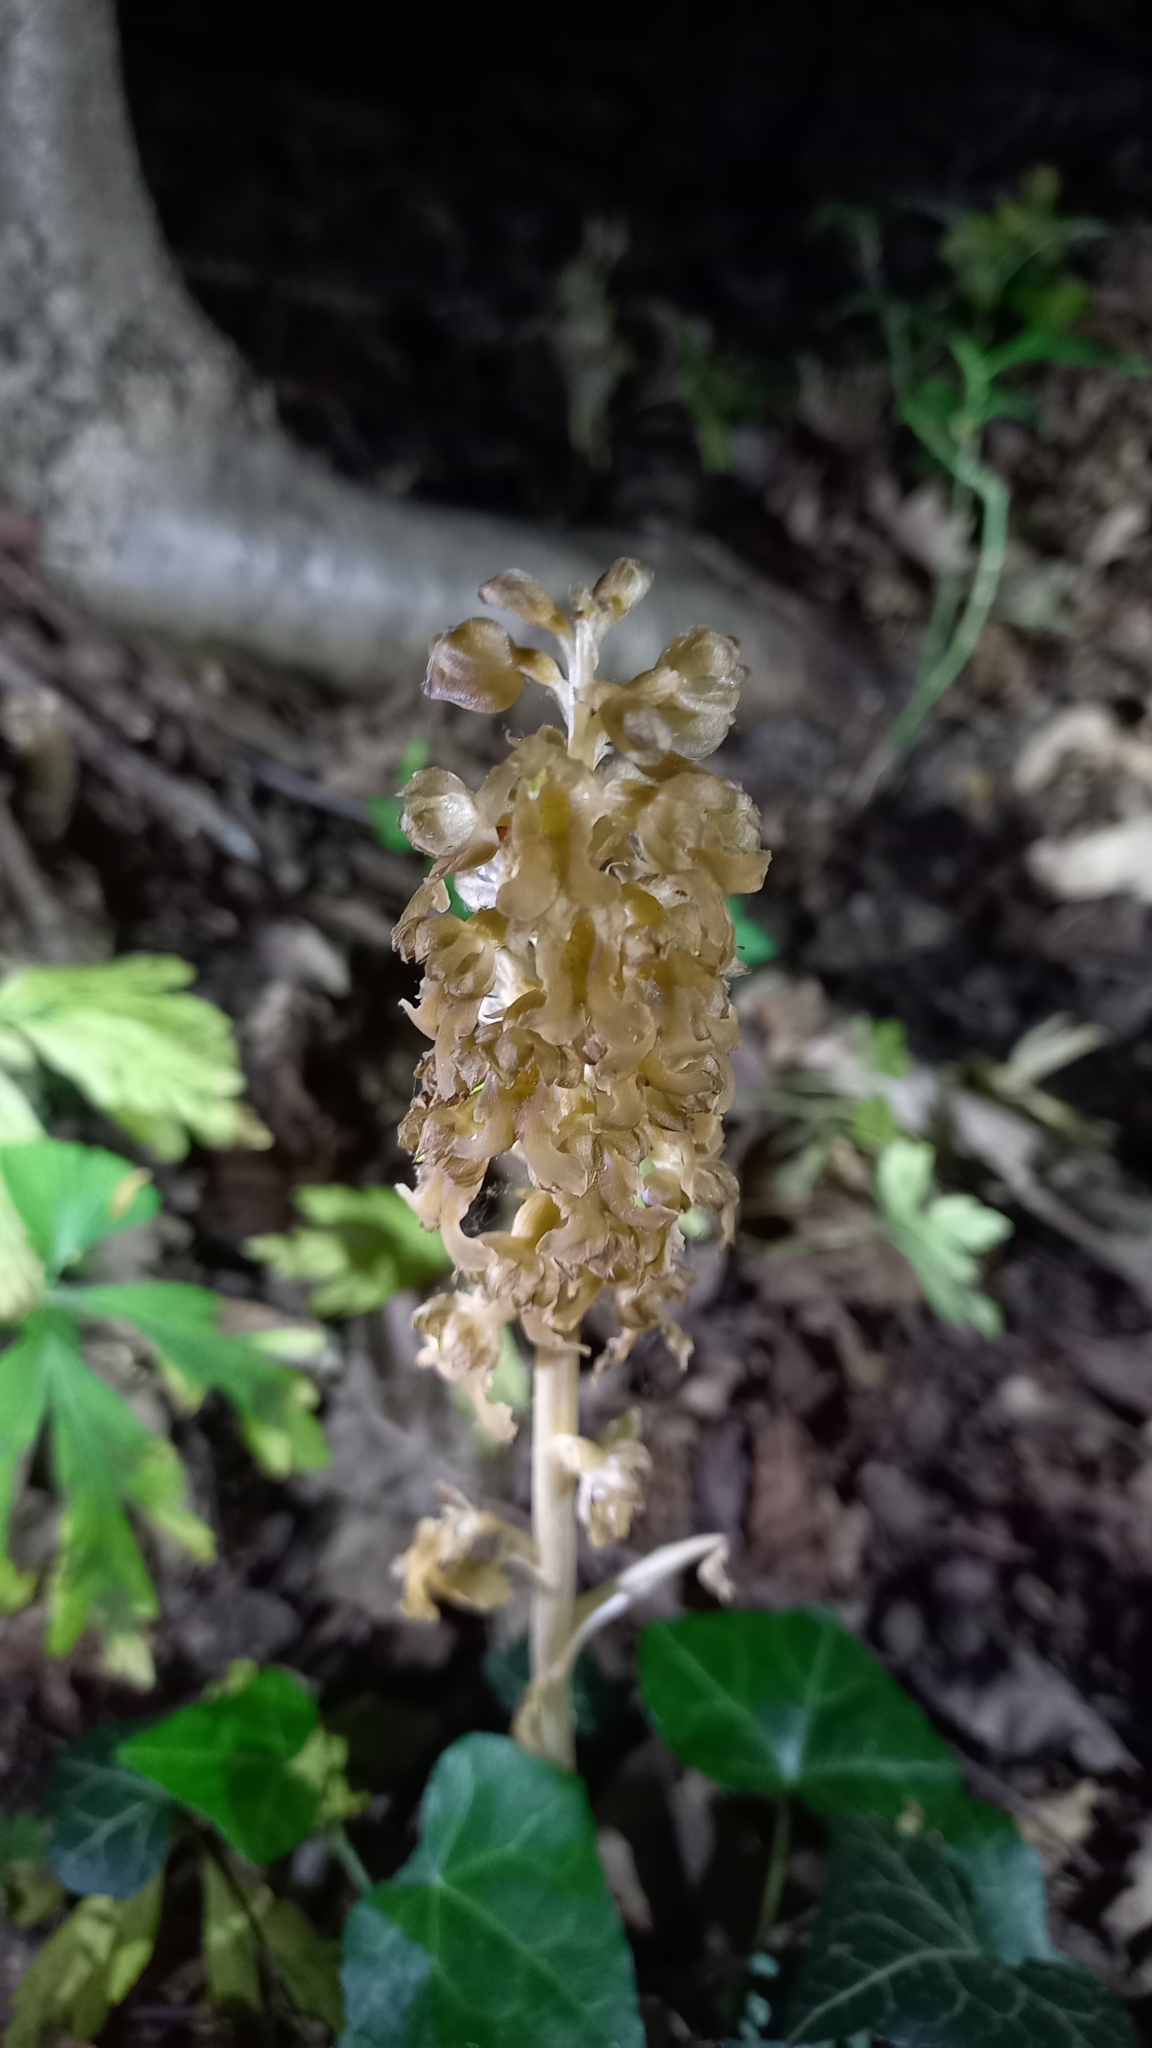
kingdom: Plantae
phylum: Tracheophyta
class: Liliopsida
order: Asparagales
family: Orchidaceae
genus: Neottia
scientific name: Neottia nidus-avis
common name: Bird's-nest orchid
